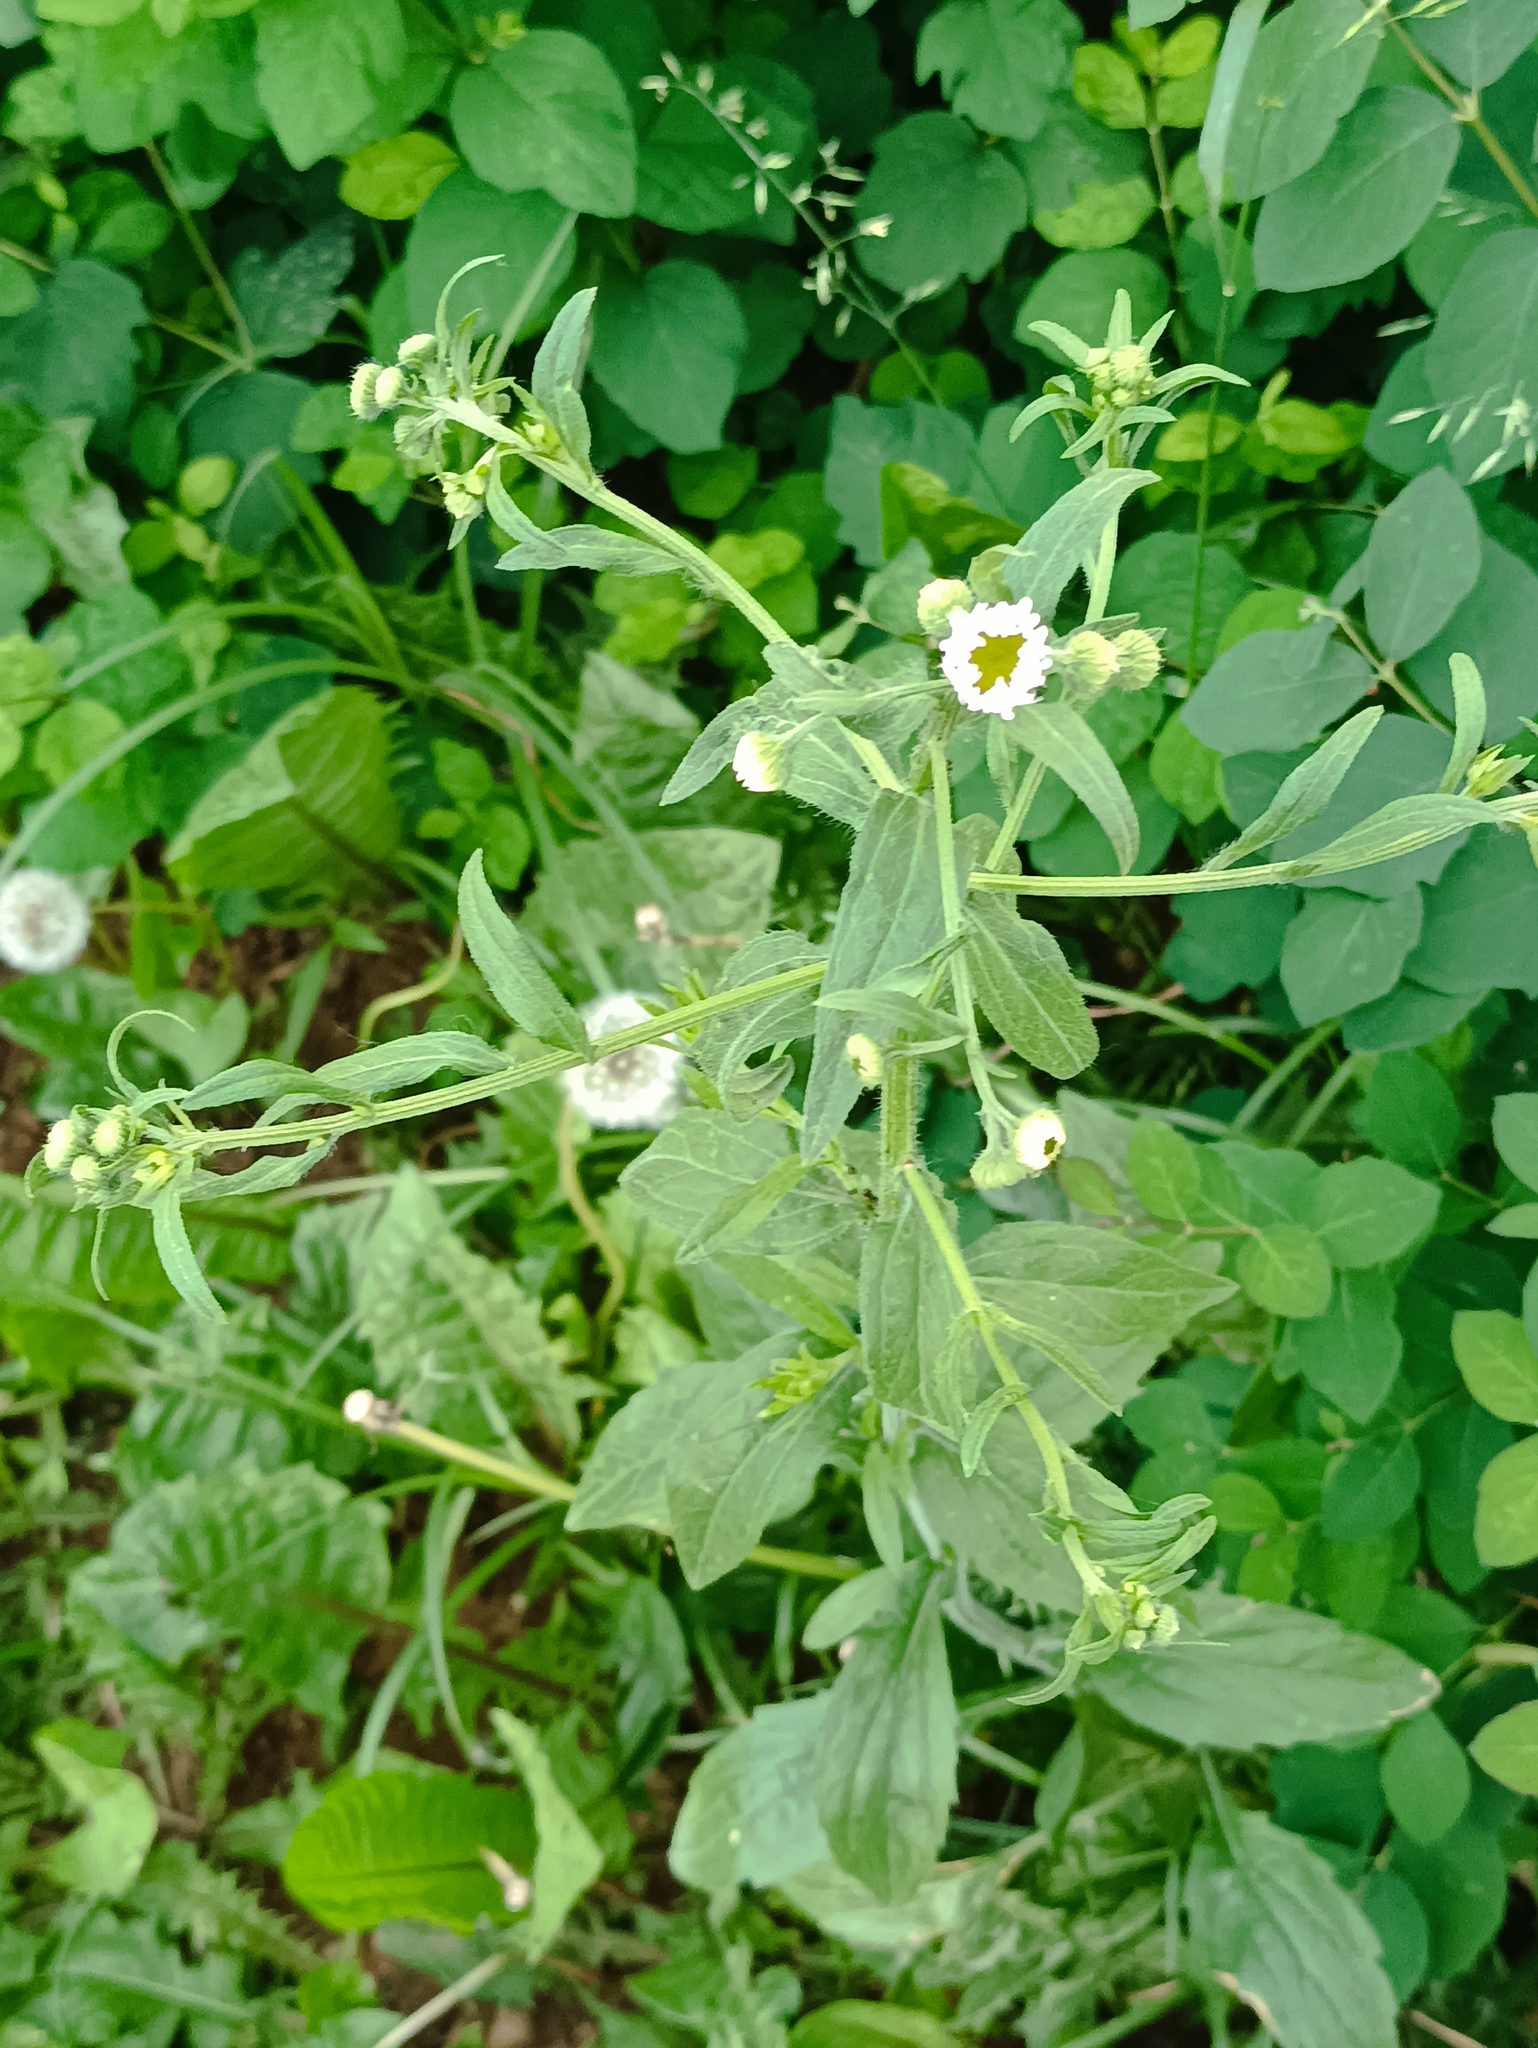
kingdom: Plantae
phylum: Tracheophyta
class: Magnoliopsida
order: Asterales
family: Asteraceae
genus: Erigeron
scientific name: Erigeron annuus
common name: Tall fleabane
